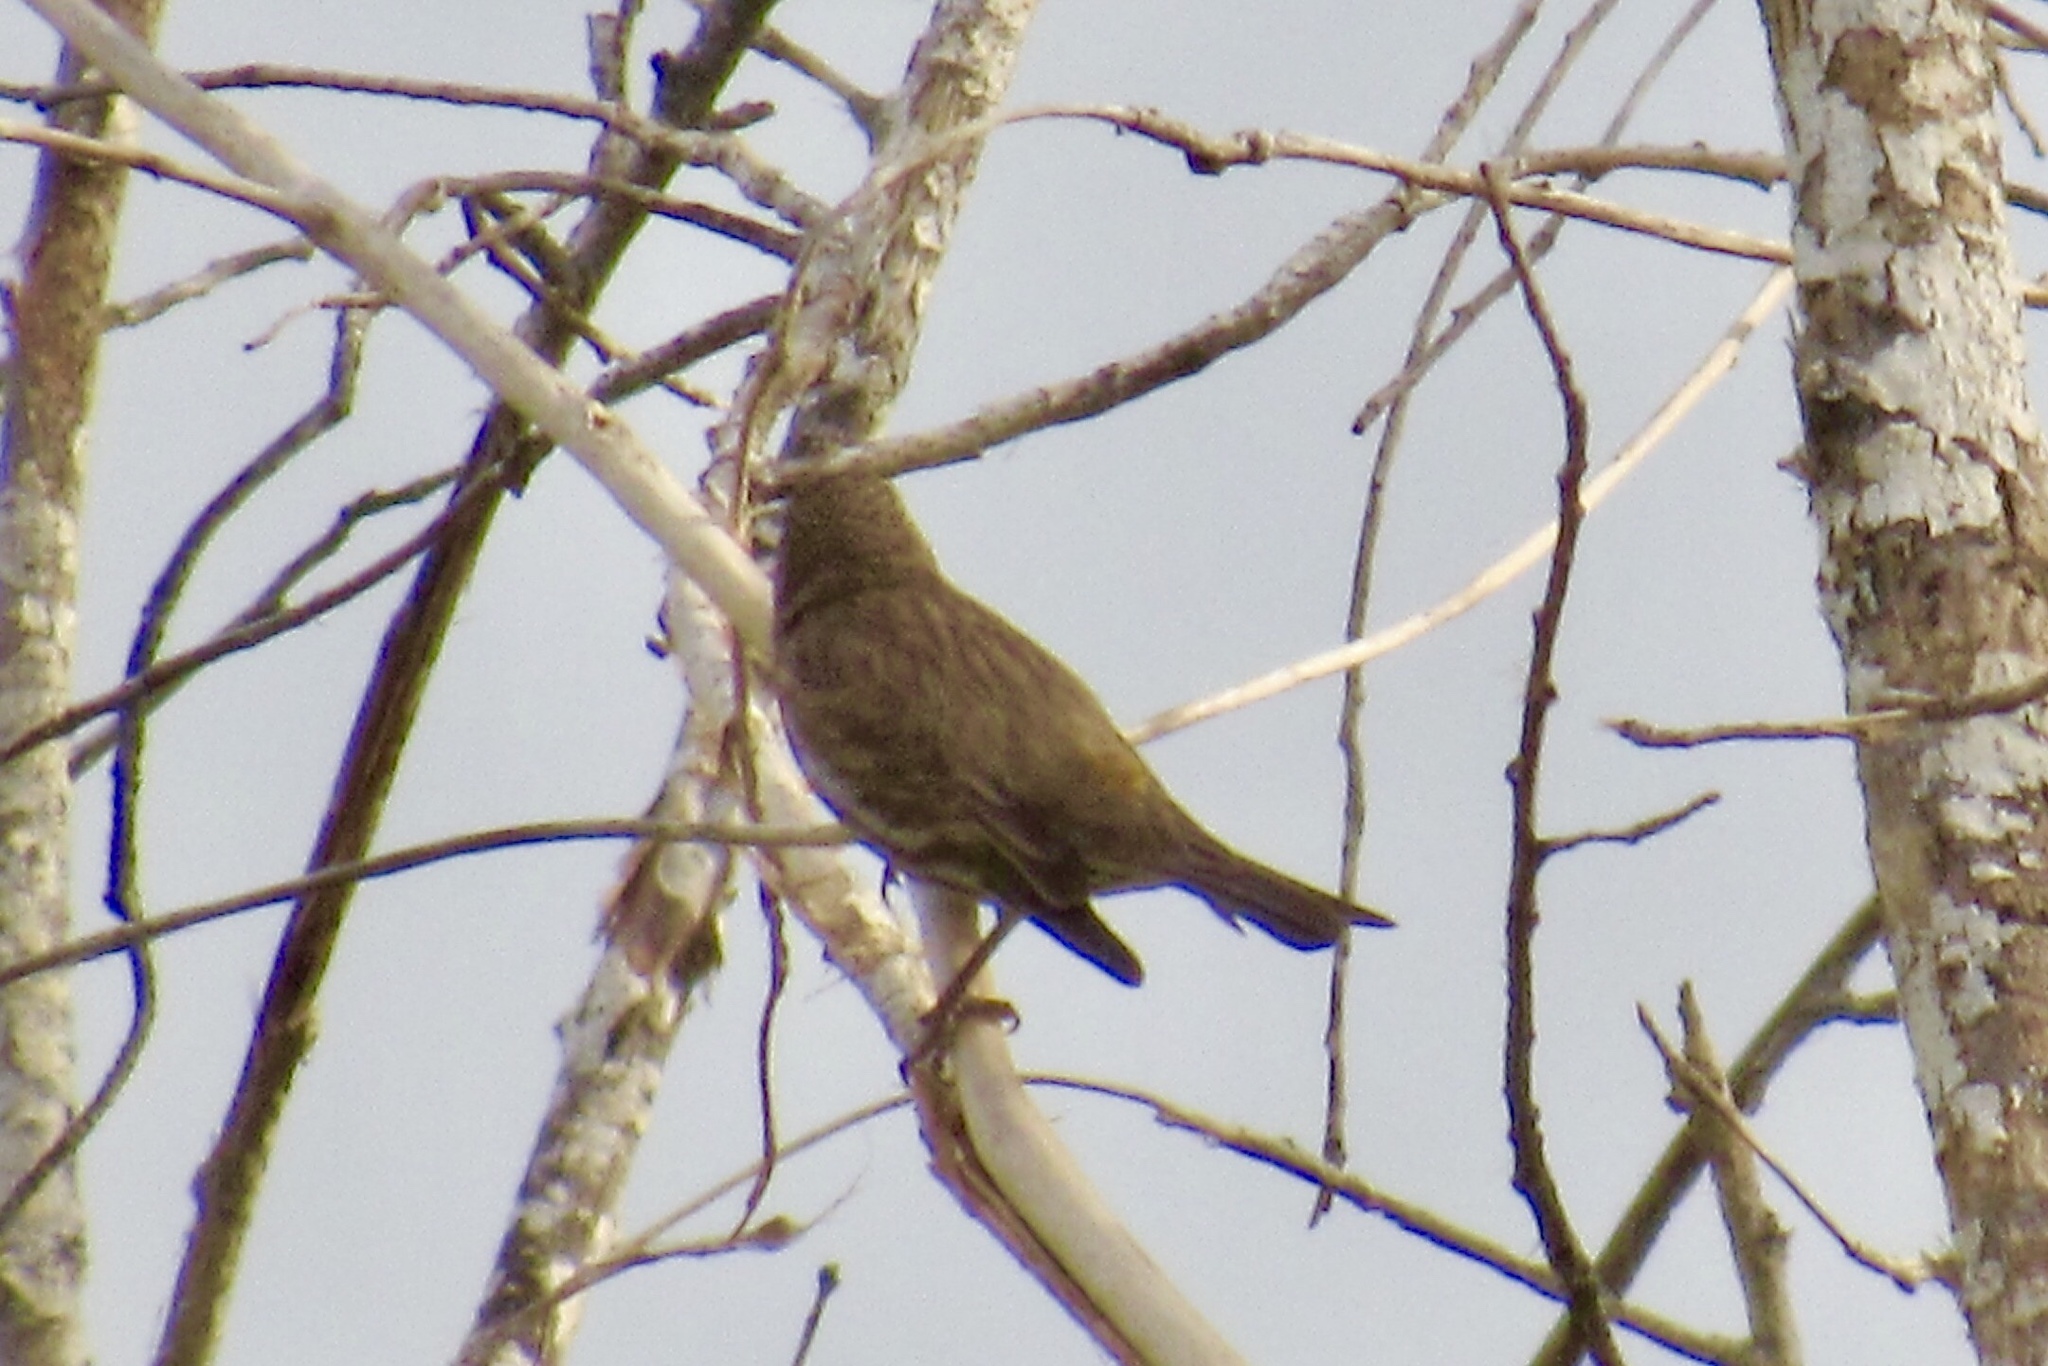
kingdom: Animalia
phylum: Chordata
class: Aves
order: Passeriformes
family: Fringillidae
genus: Haemorhous
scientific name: Haemorhous mexicanus
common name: House finch
